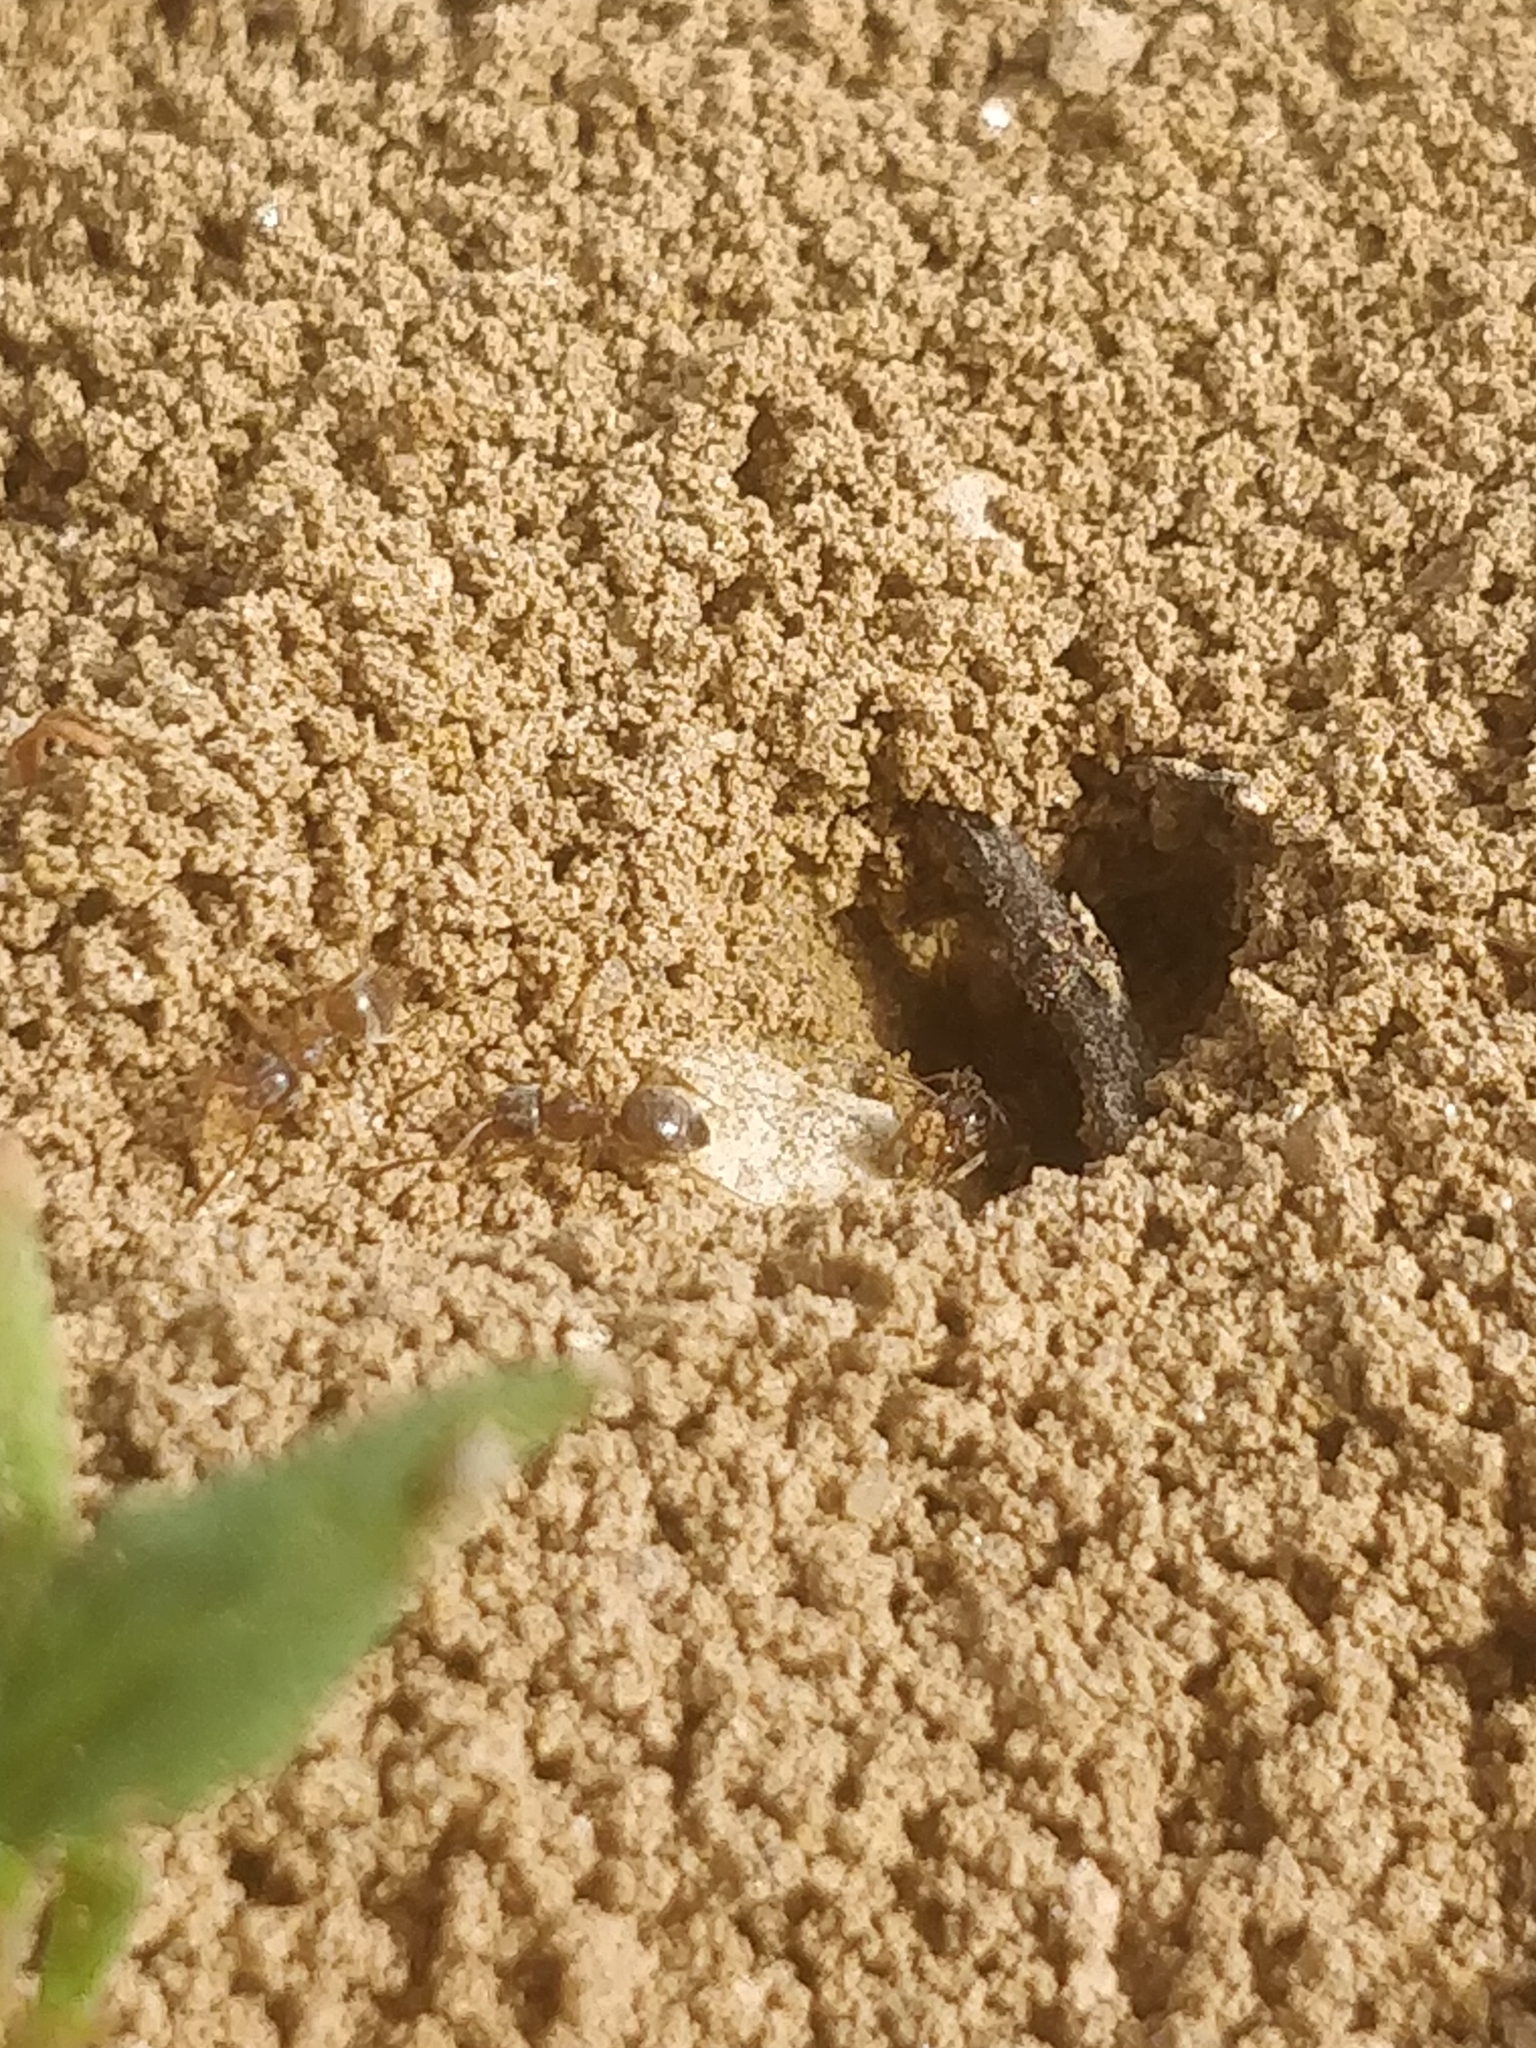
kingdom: Animalia
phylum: Arthropoda
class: Insecta
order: Hymenoptera
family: Formicidae
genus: Lasius
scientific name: Lasius neoniger
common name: Turfgrass ant
